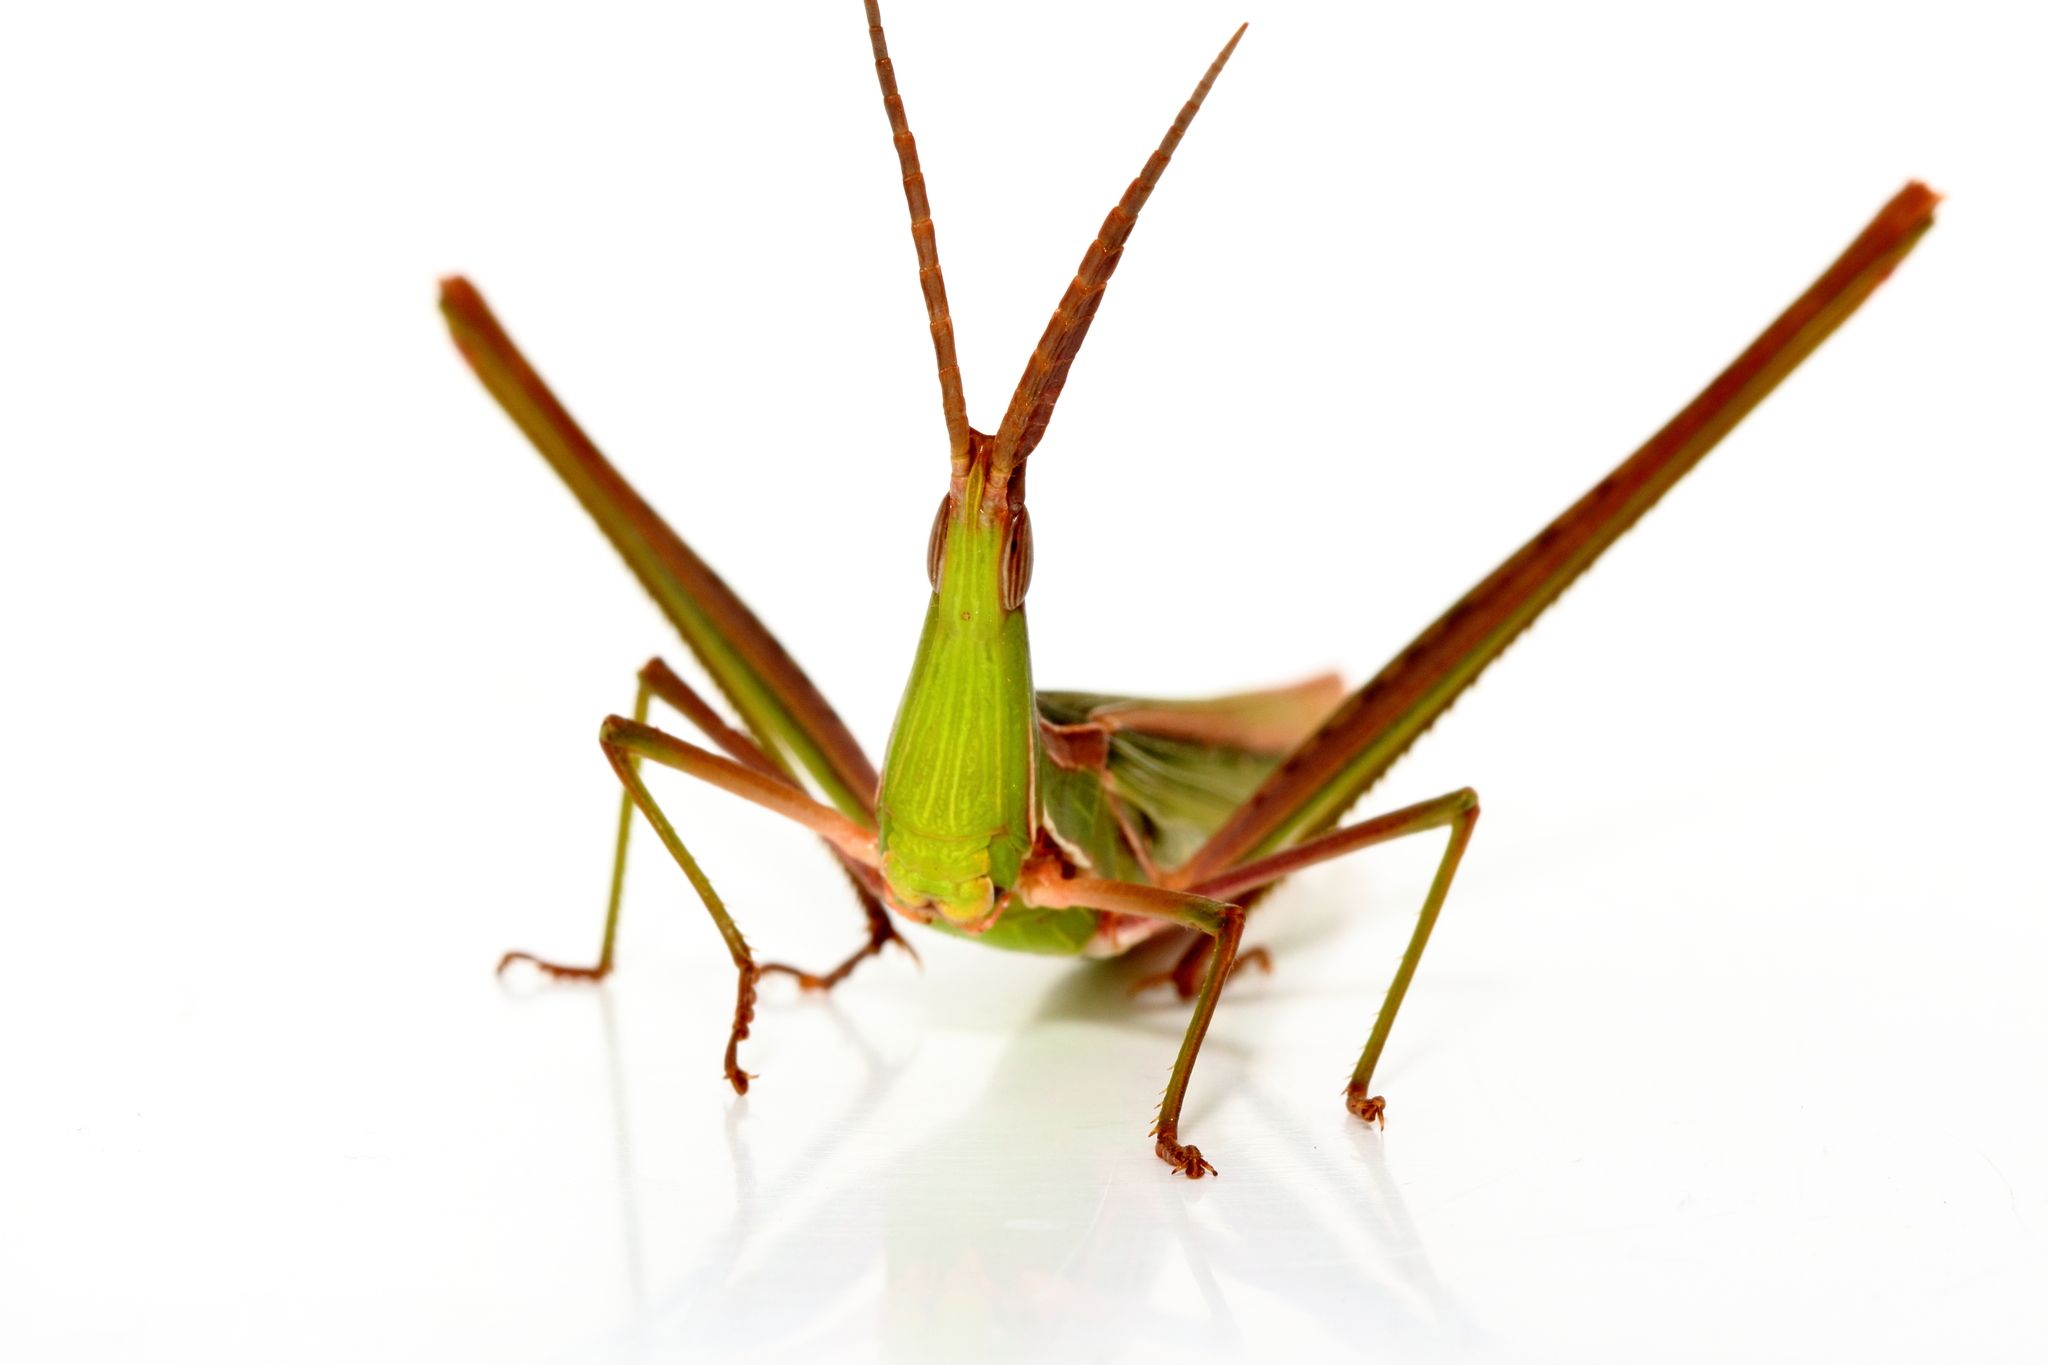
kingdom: Animalia
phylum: Arthropoda
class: Insecta
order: Orthoptera
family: Acrididae
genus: Acrida
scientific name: Acrida conica
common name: Giant green slantface
